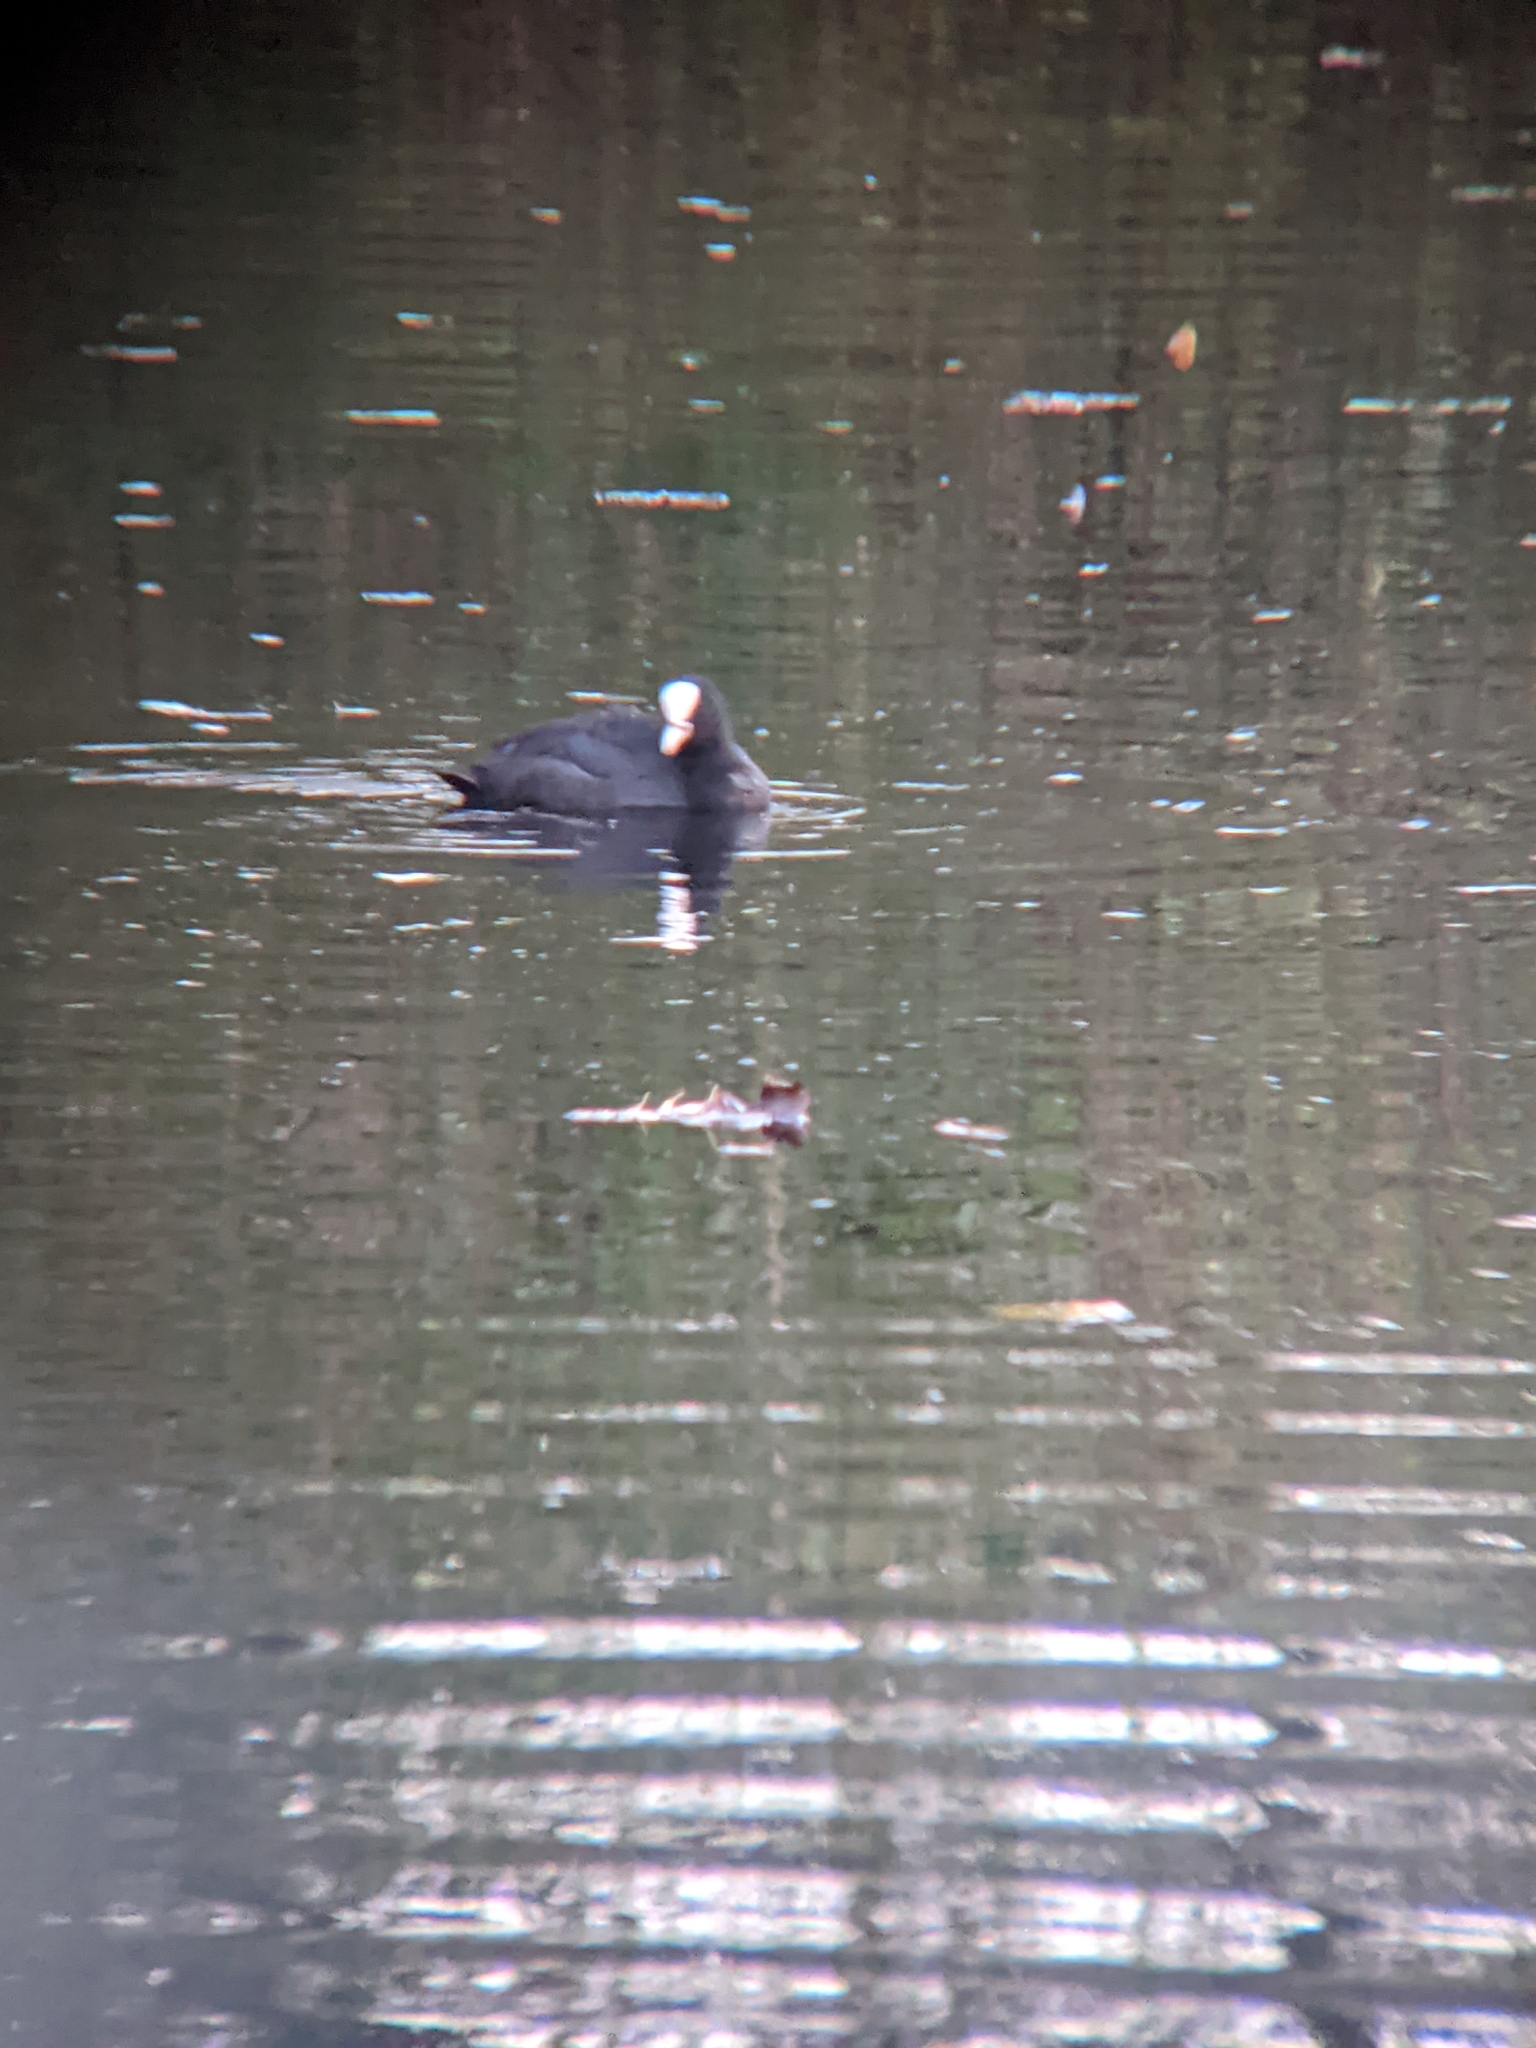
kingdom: Animalia
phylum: Chordata
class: Aves
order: Gruiformes
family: Rallidae
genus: Fulica
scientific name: Fulica atra
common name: Eurasian coot
